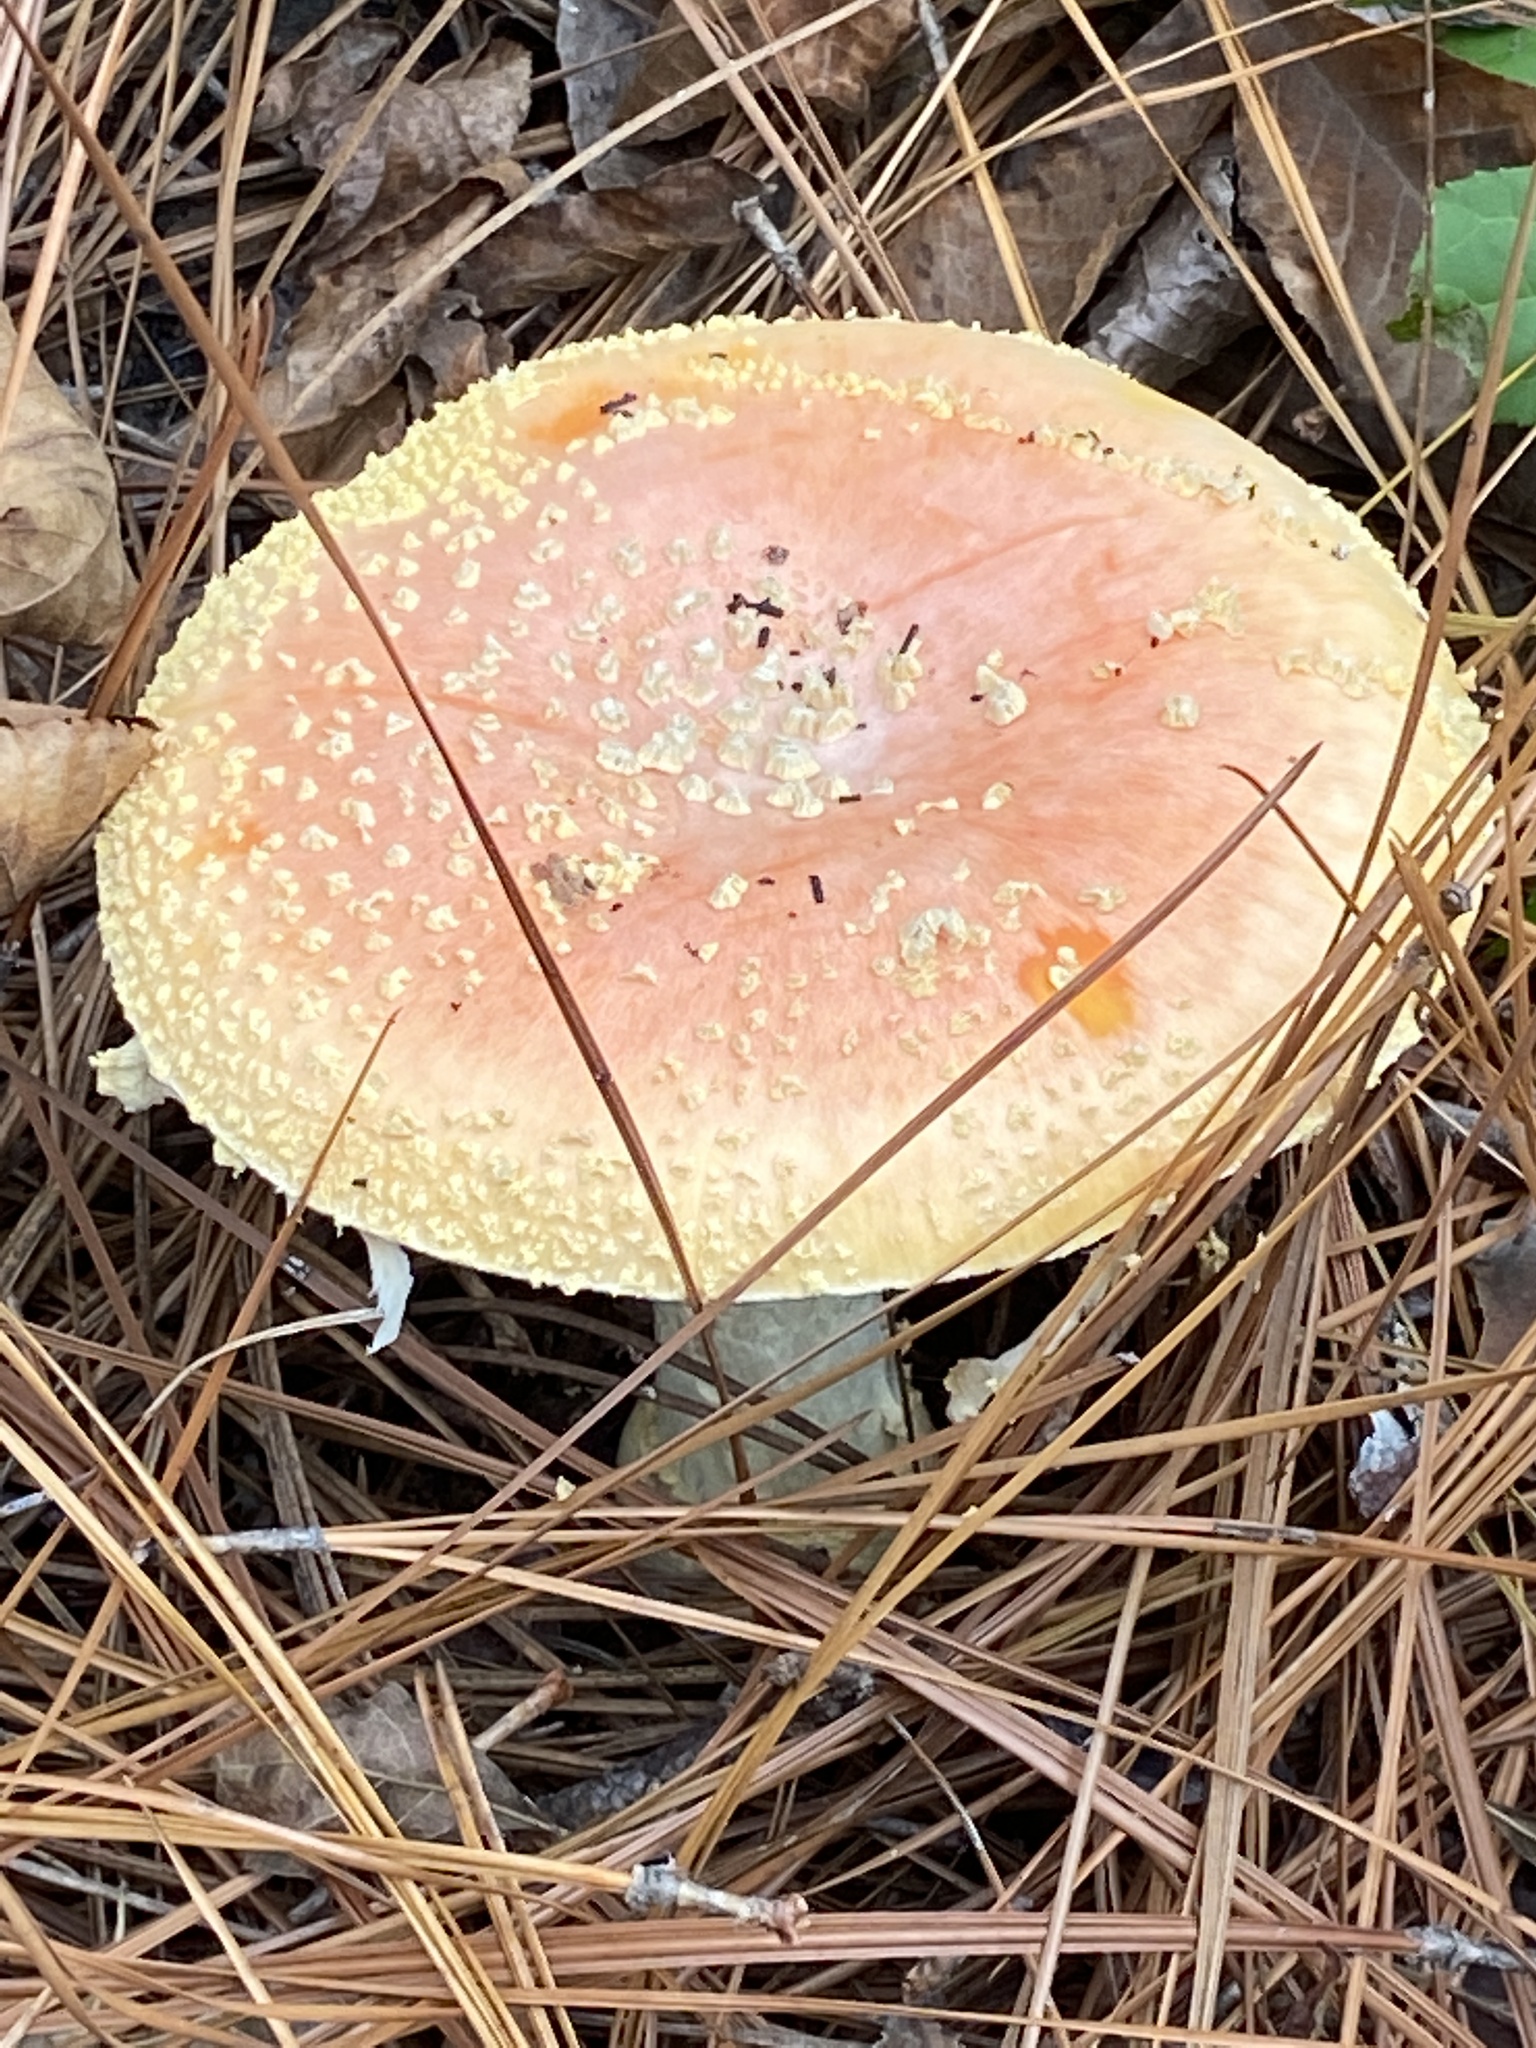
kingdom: Fungi
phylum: Basidiomycota
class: Agaricomycetes
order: Agaricales
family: Amanitaceae
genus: Amanita
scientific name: Amanita persicina
